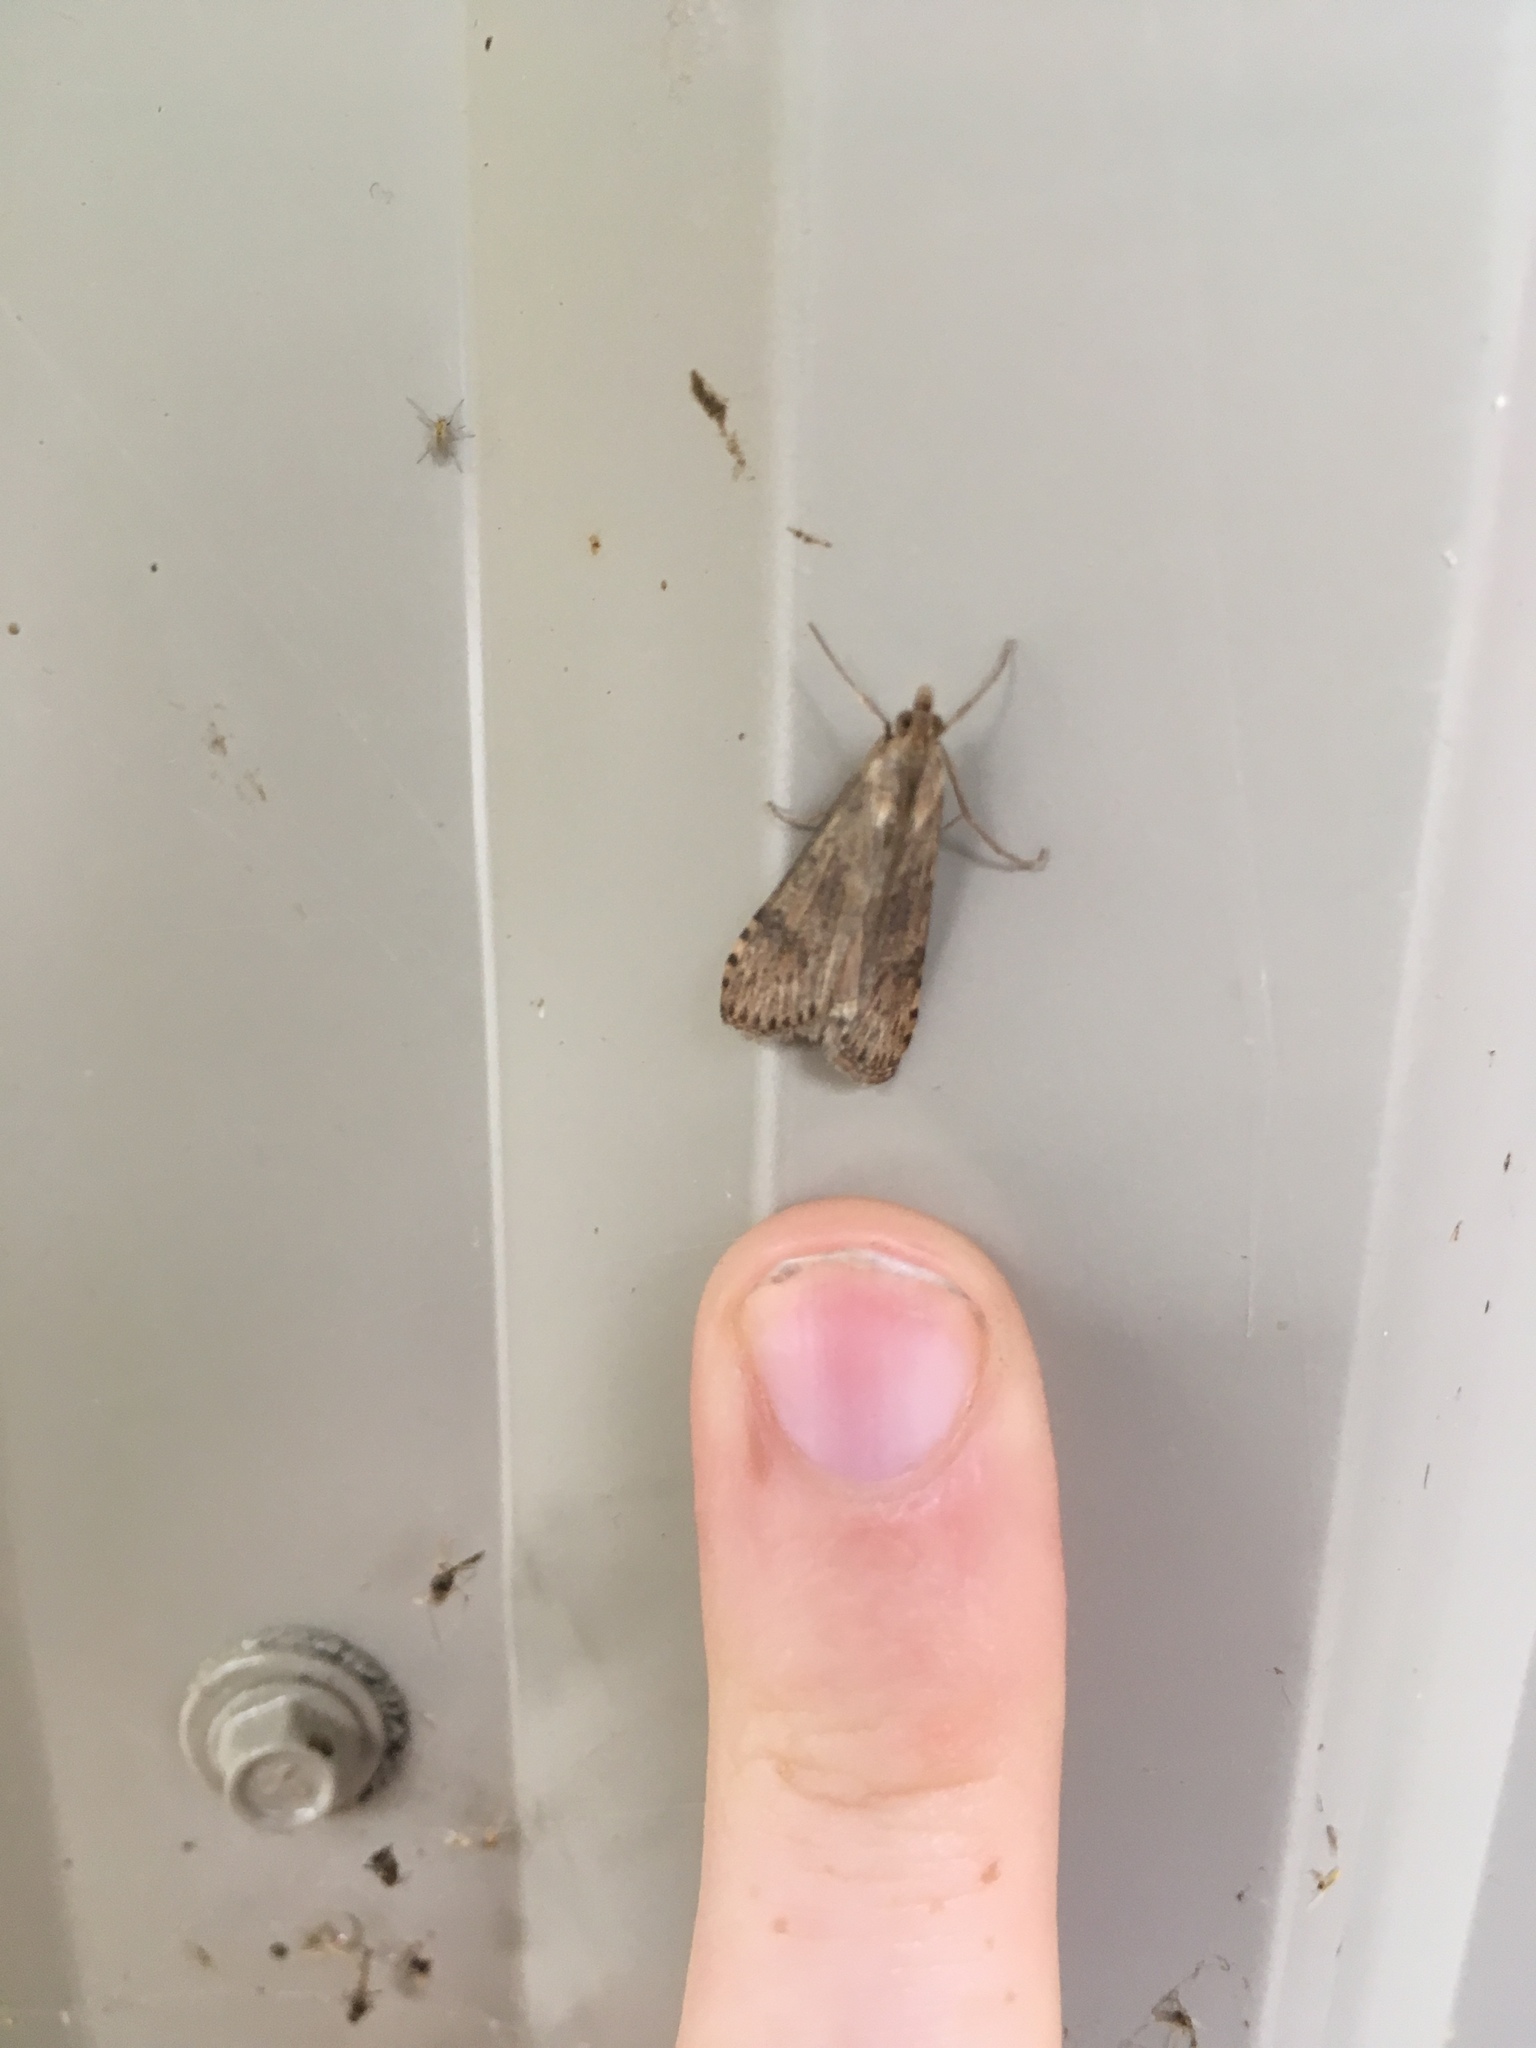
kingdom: Animalia
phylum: Arthropoda
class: Insecta
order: Lepidoptera
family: Crambidae
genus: Nomophila
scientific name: Nomophila nearctica
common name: American rush veneer
